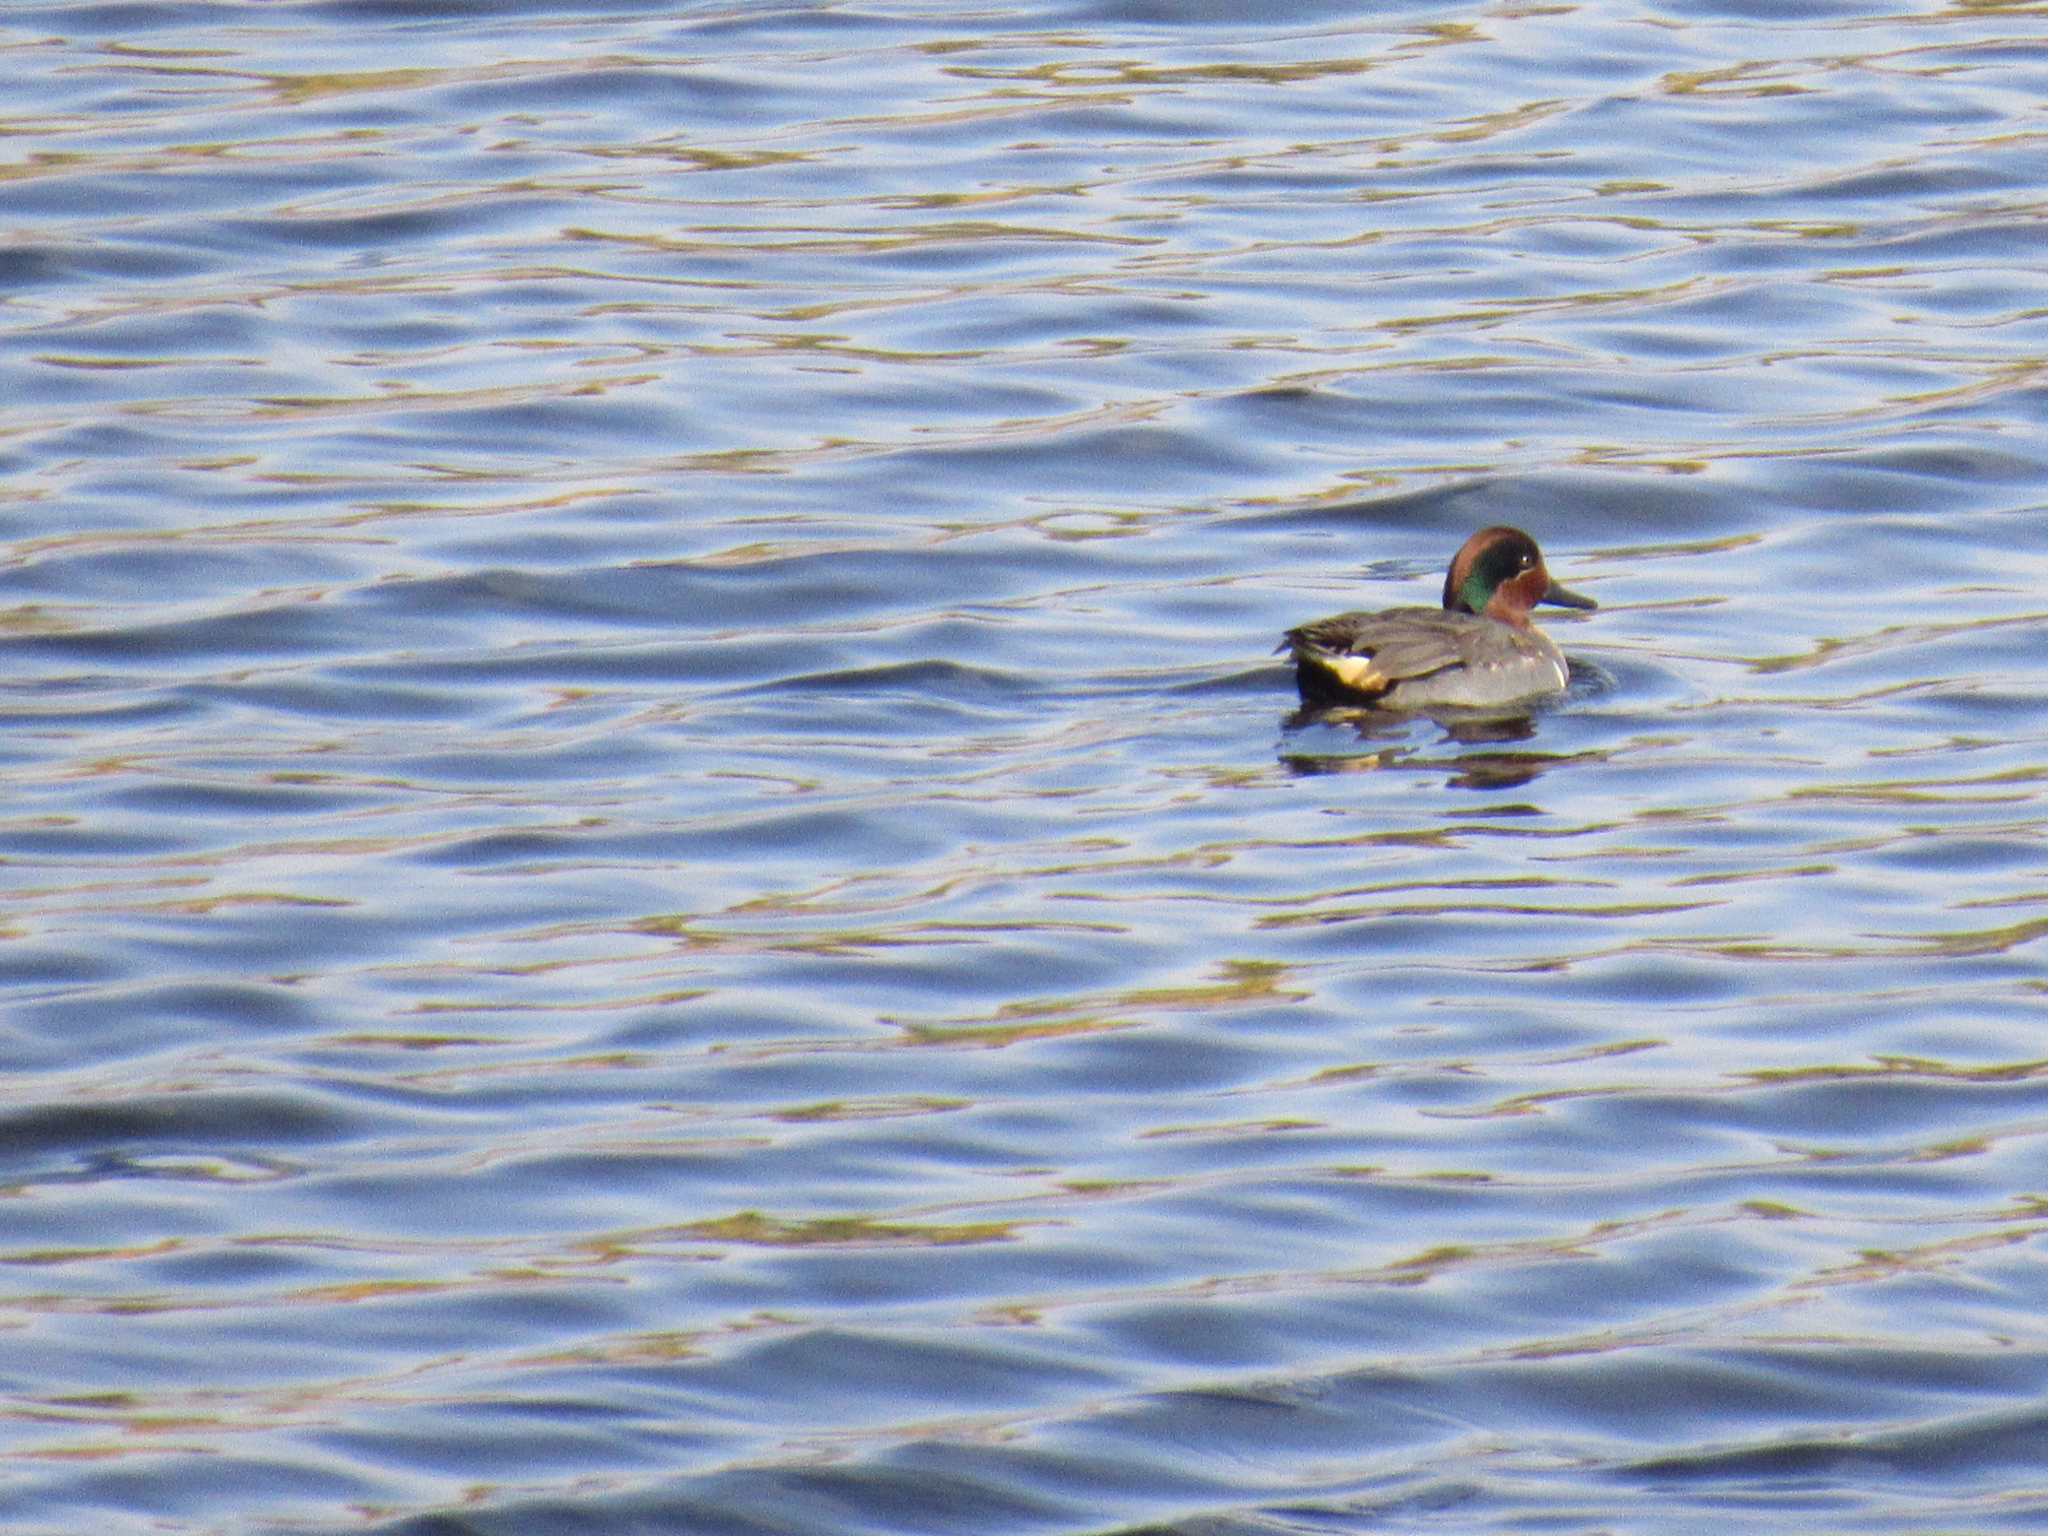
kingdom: Animalia
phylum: Chordata
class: Aves
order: Anseriformes
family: Anatidae
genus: Anas
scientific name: Anas crecca
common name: Eurasian teal
